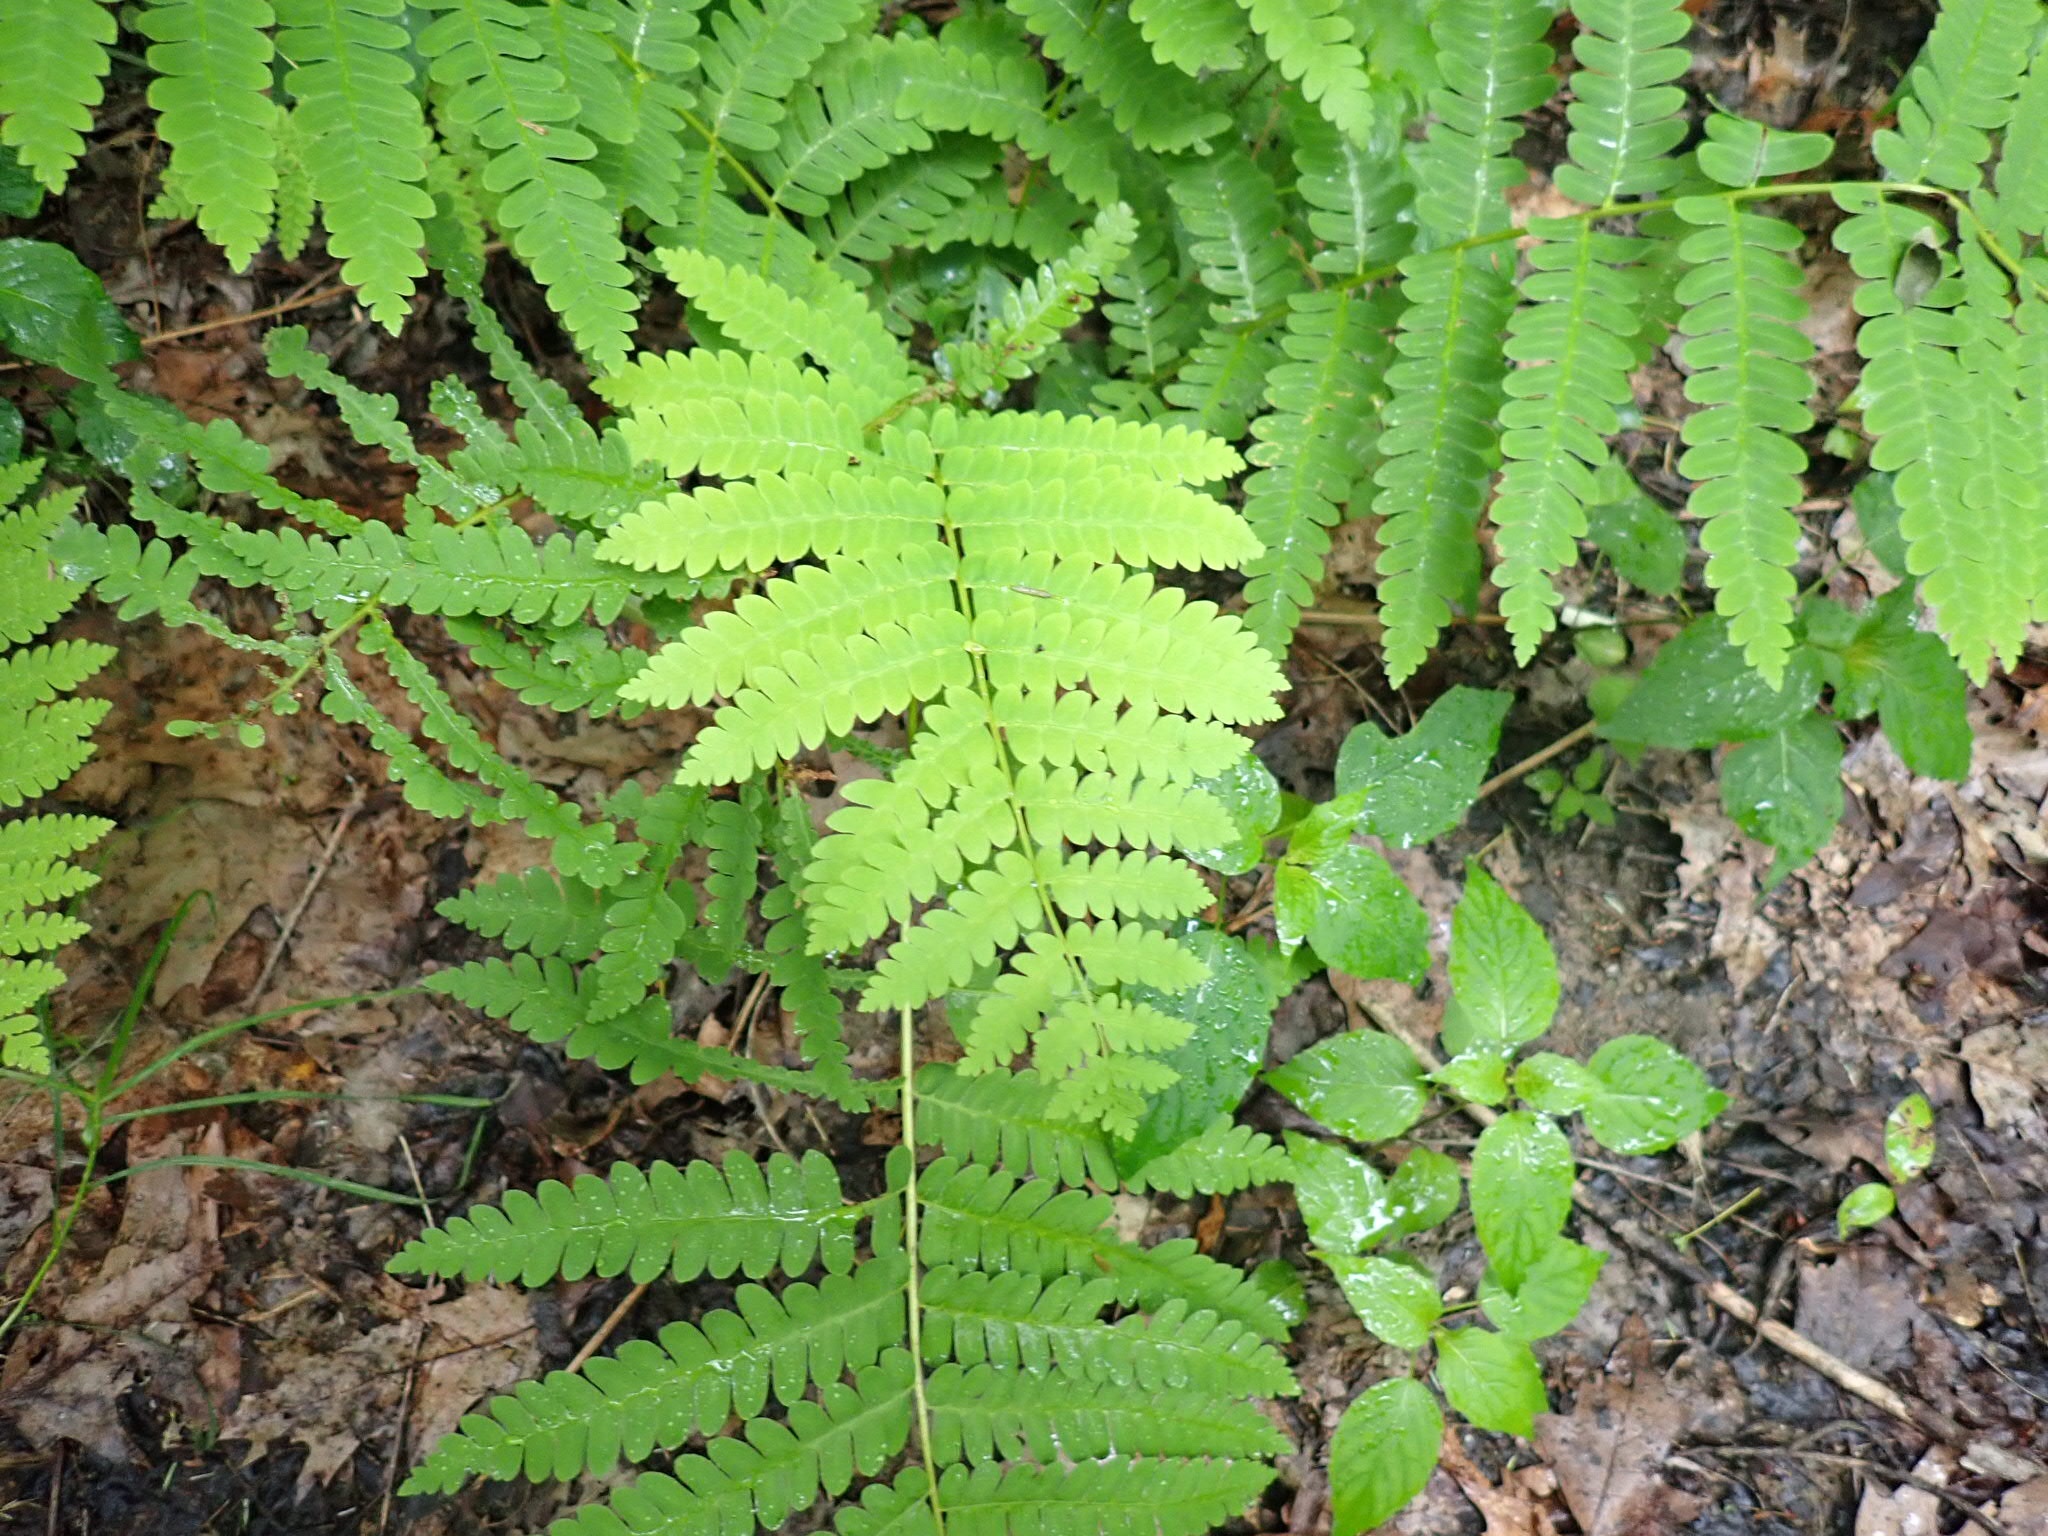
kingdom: Plantae
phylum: Tracheophyta
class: Polypodiopsida
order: Osmundales
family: Osmundaceae
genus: Claytosmunda
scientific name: Claytosmunda claytoniana
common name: Clayton's fern
